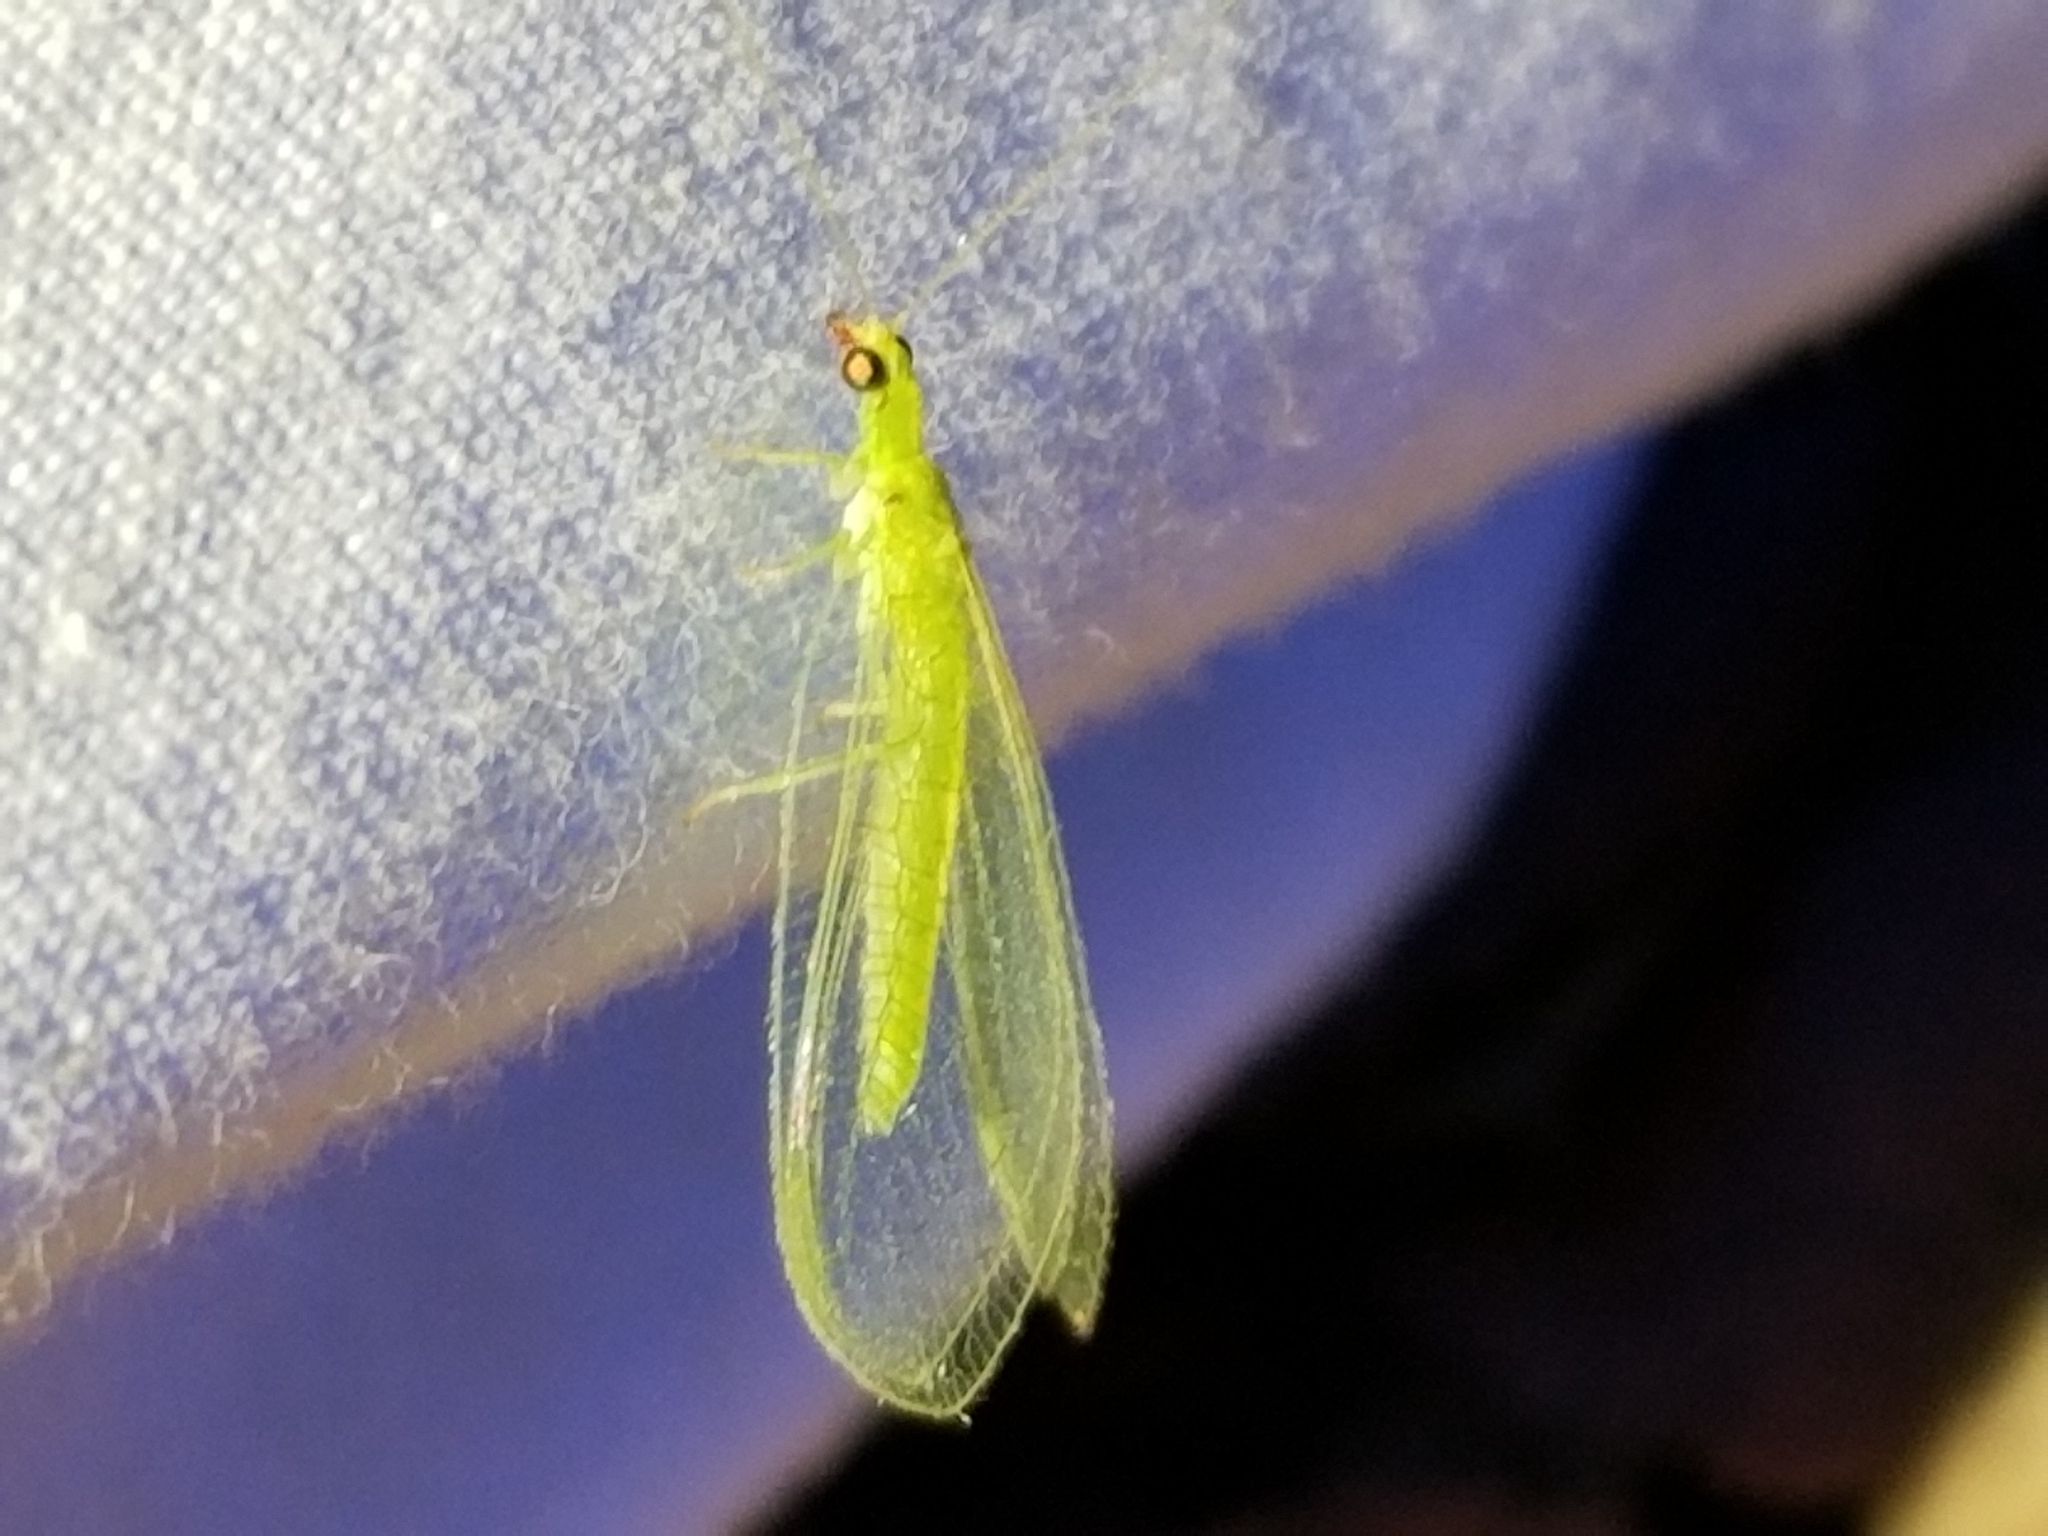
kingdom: Animalia
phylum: Arthropoda
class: Insecta
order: Neuroptera
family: Chrysopidae
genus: Chrysoperla
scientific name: Chrysoperla rufilabris
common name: Red-lipped green lacewing
